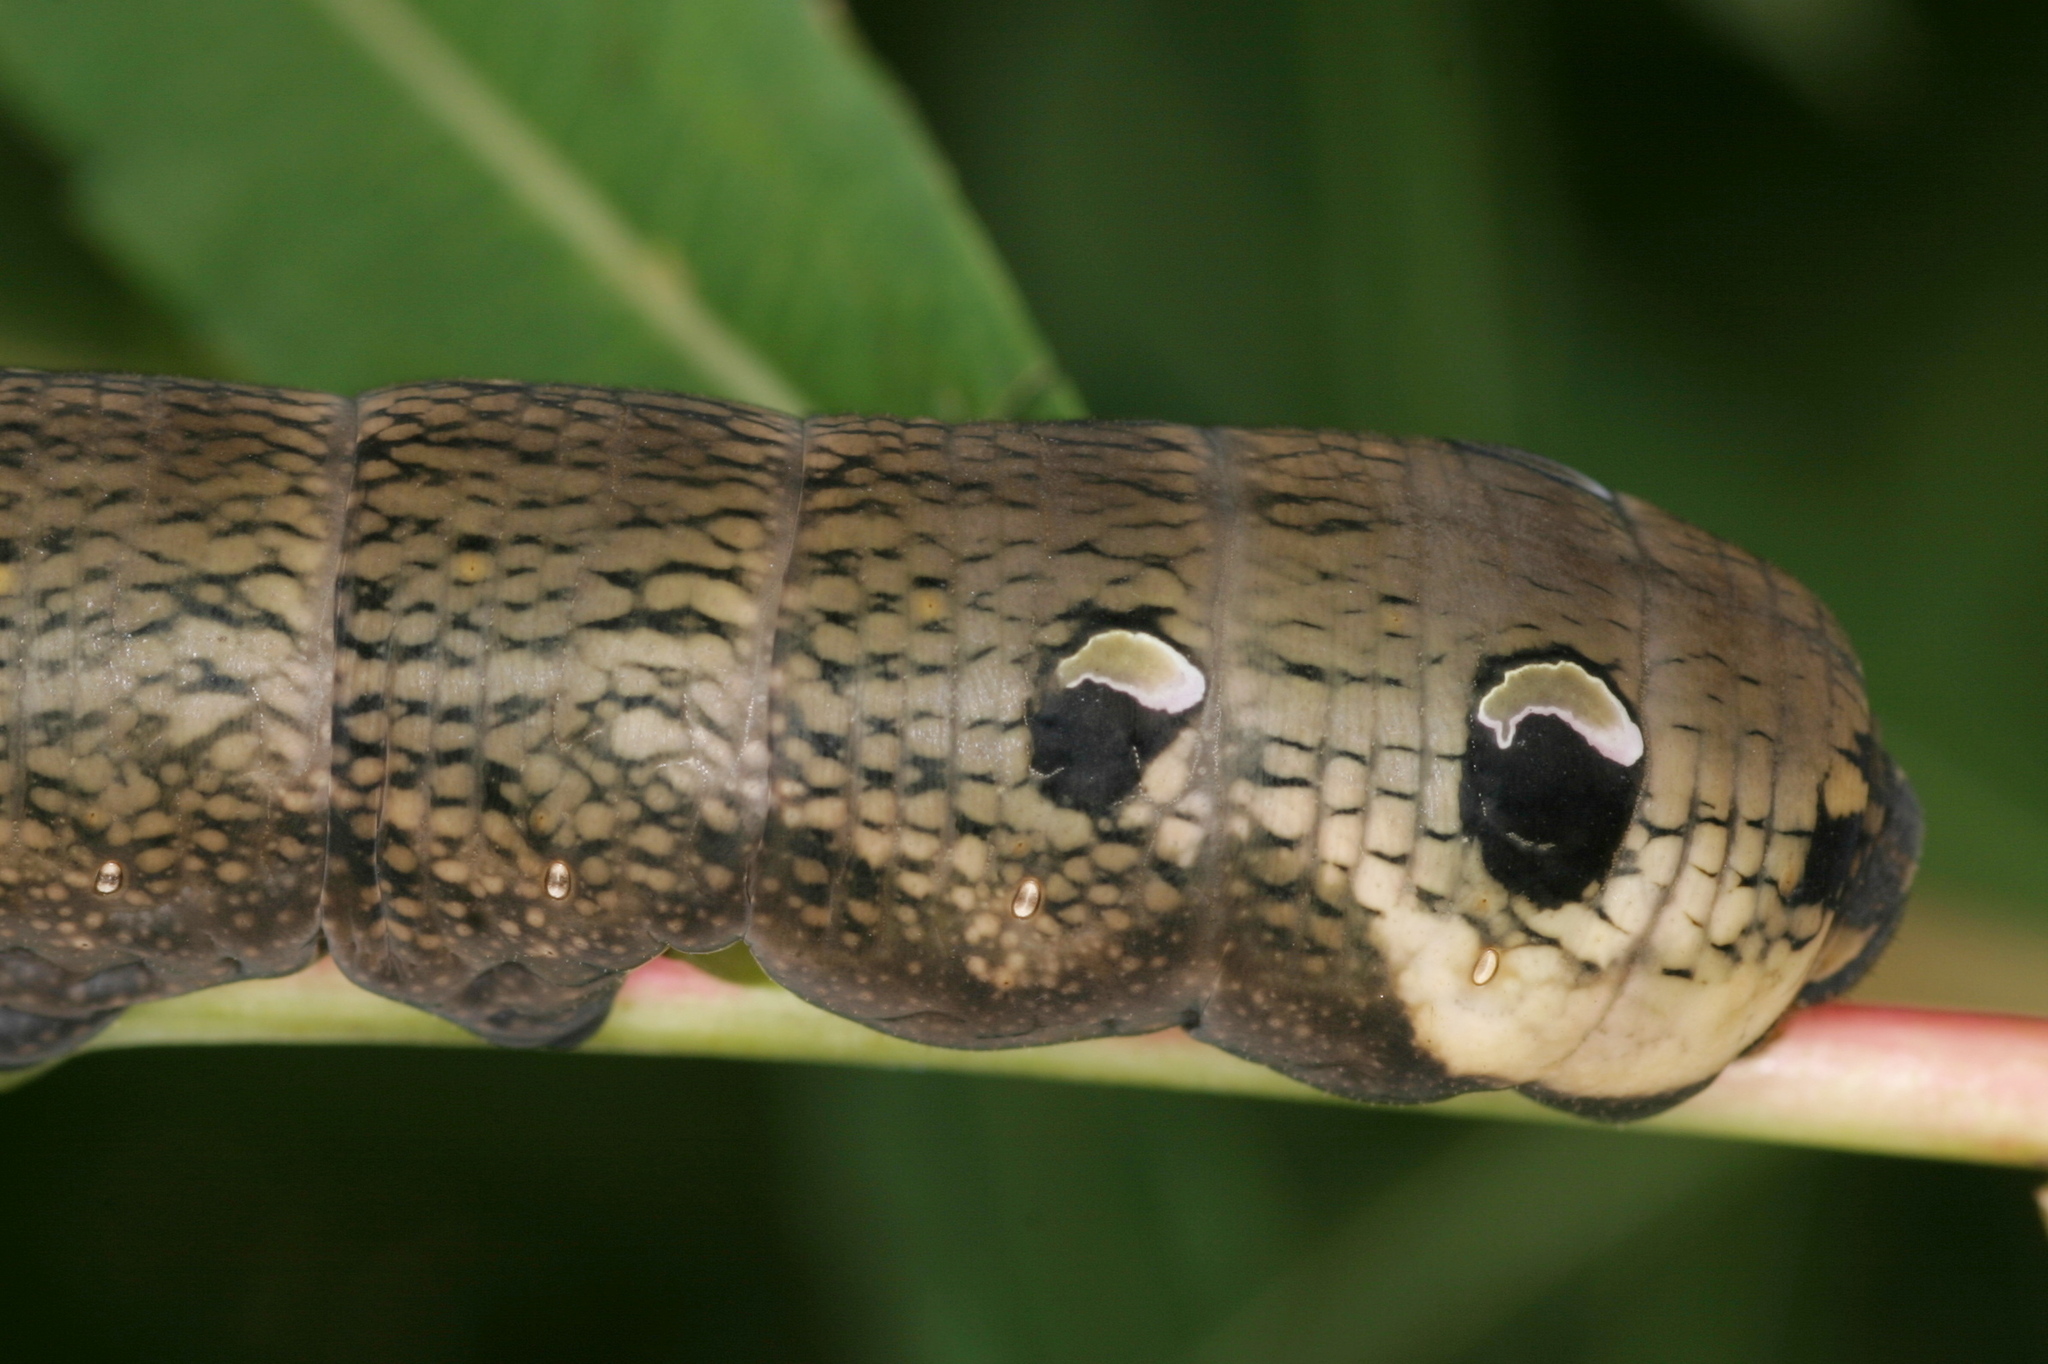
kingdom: Animalia
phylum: Arthropoda
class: Insecta
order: Lepidoptera
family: Sphingidae
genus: Deilephila
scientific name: Deilephila elpenor
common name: Elephant hawk-moth
